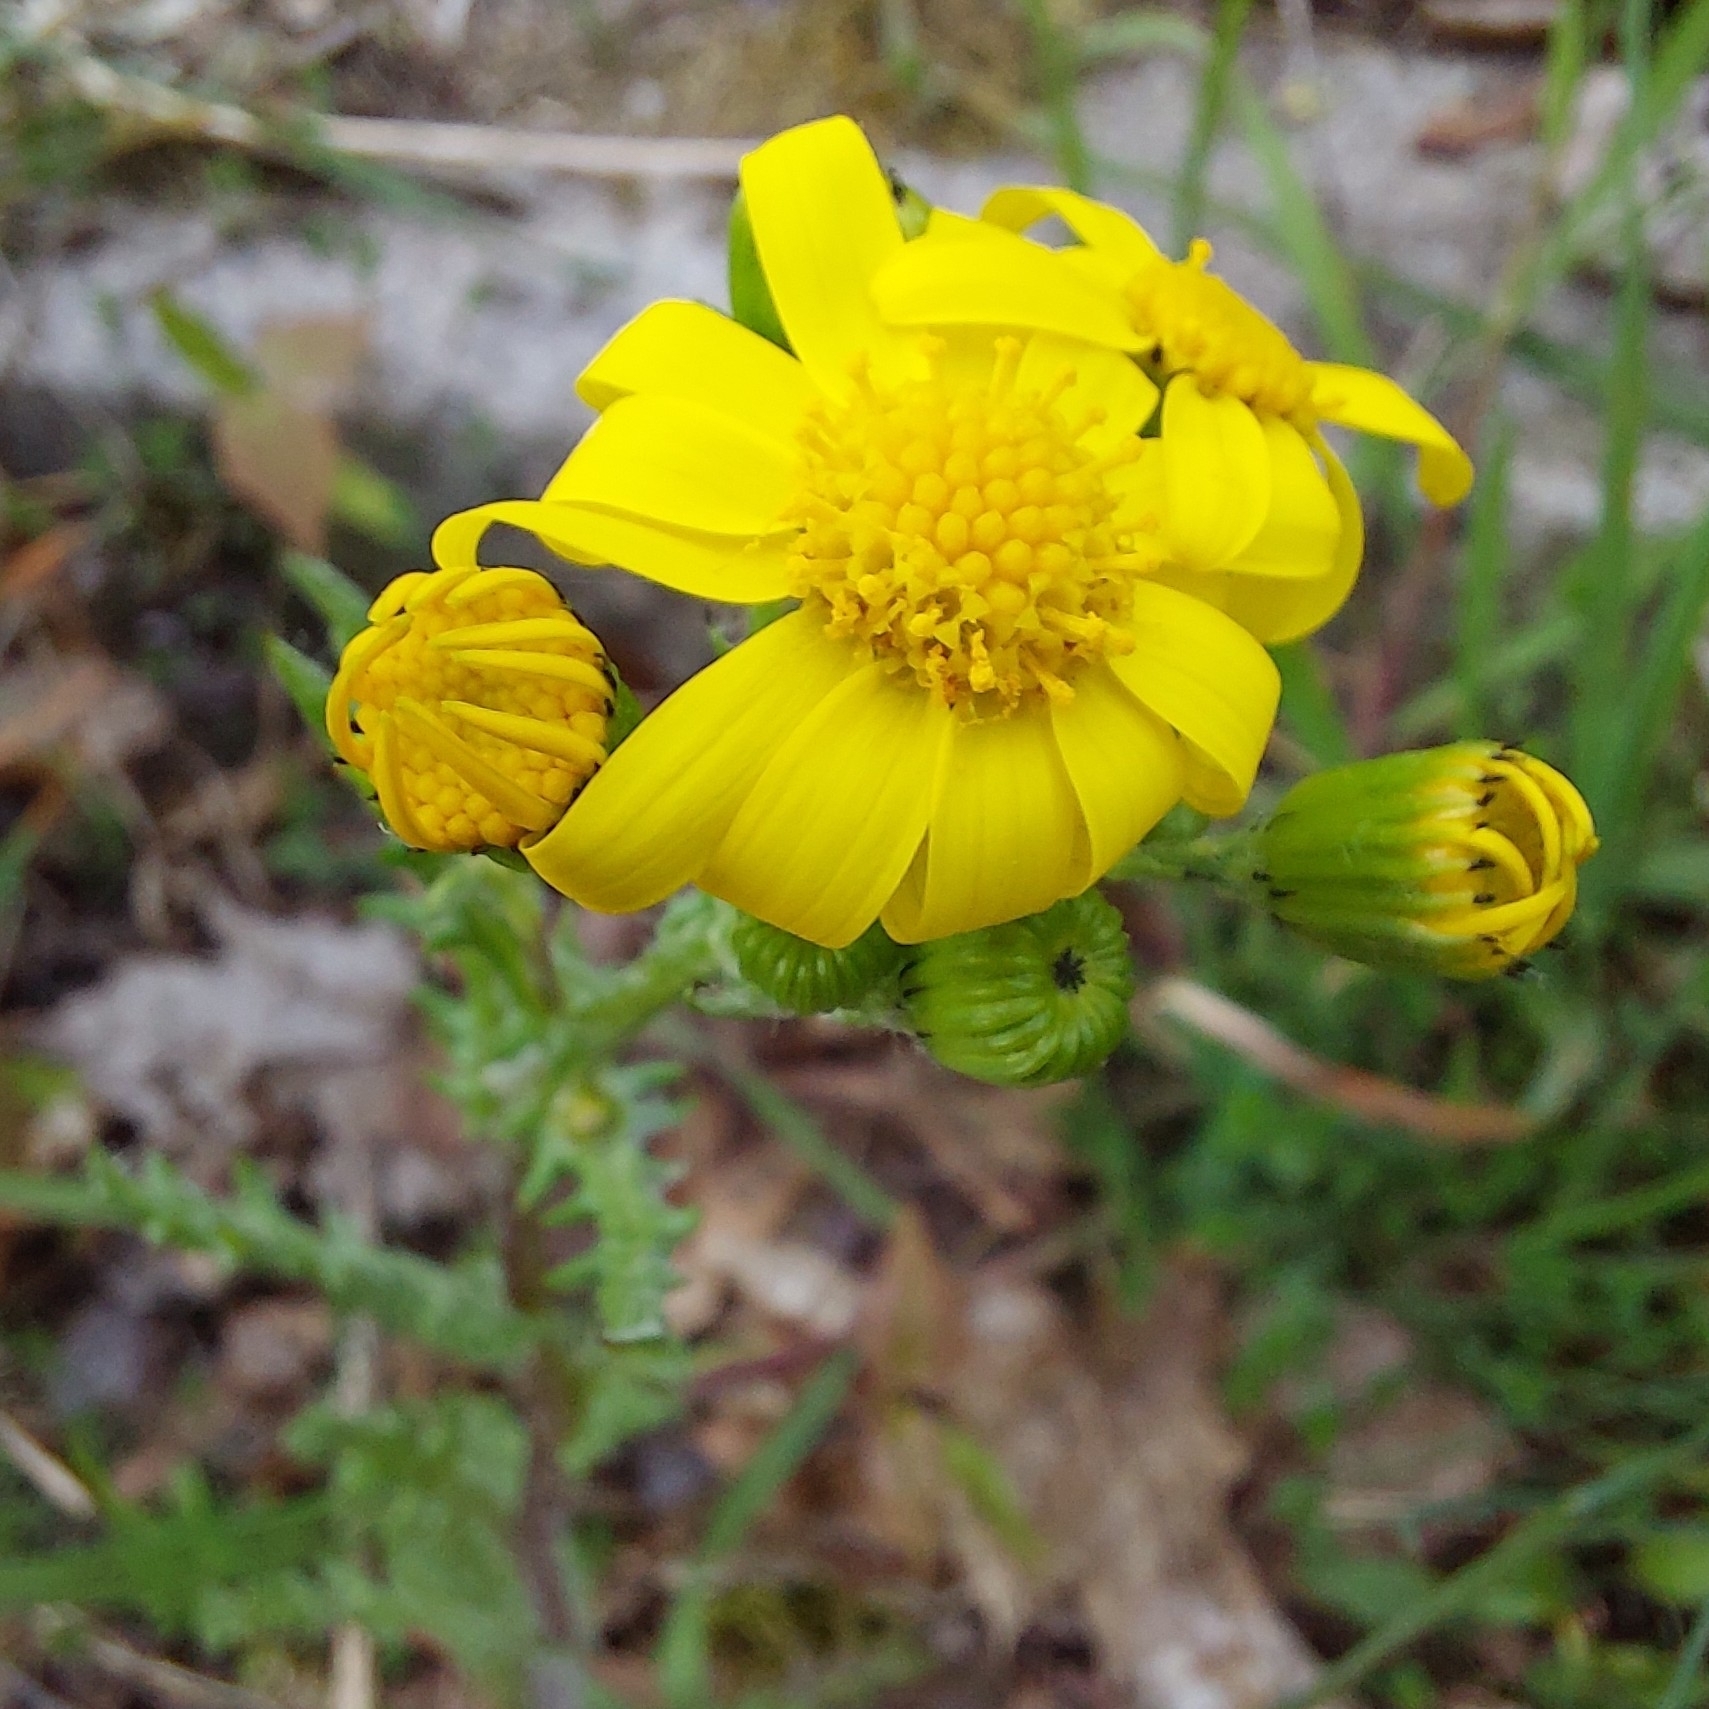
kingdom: Plantae
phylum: Tracheophyta
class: Magnoliopsida
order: Asterales
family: Asteraceae
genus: Senecio
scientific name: Senecio vernalis
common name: Eastern groundsel
